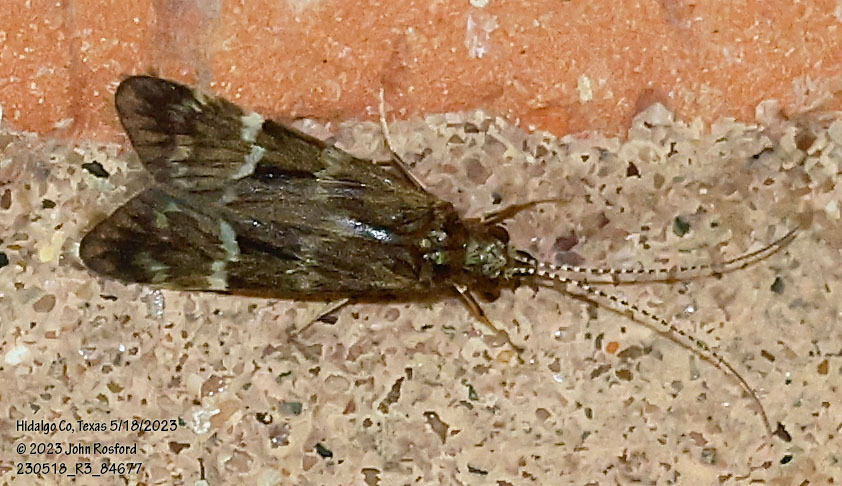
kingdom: Animalia
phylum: Arthropoda
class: Insecta
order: Trichoptera
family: Hydropsychidae
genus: Smicridea
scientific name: Smicridea fasciatella
